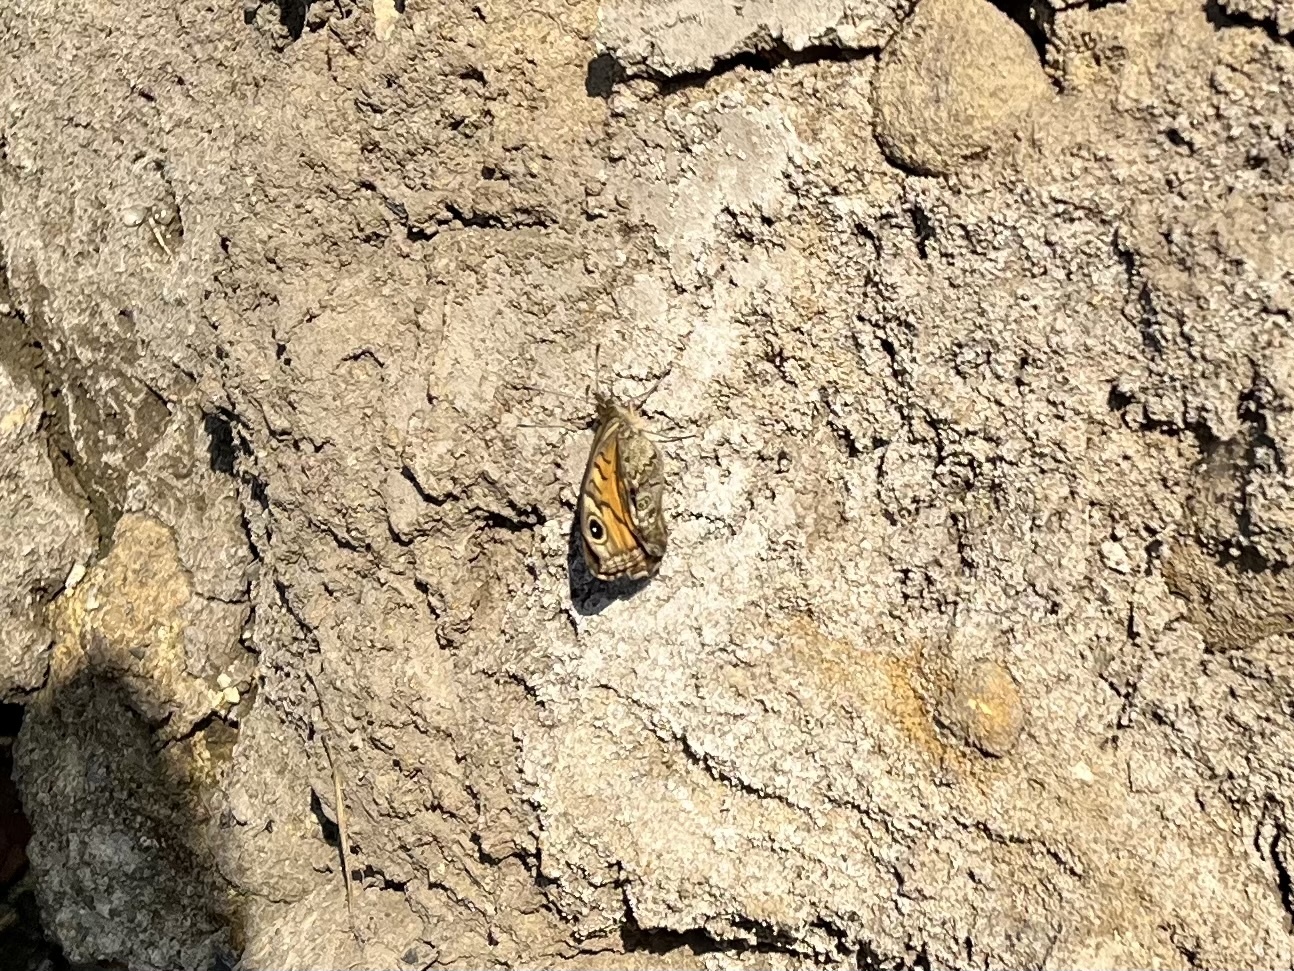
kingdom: Animalia
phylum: Arthropoda
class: Insecta
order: Lepidoptera
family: Nymphalidae
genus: Pararge
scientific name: Pararge Lasiommata megera
